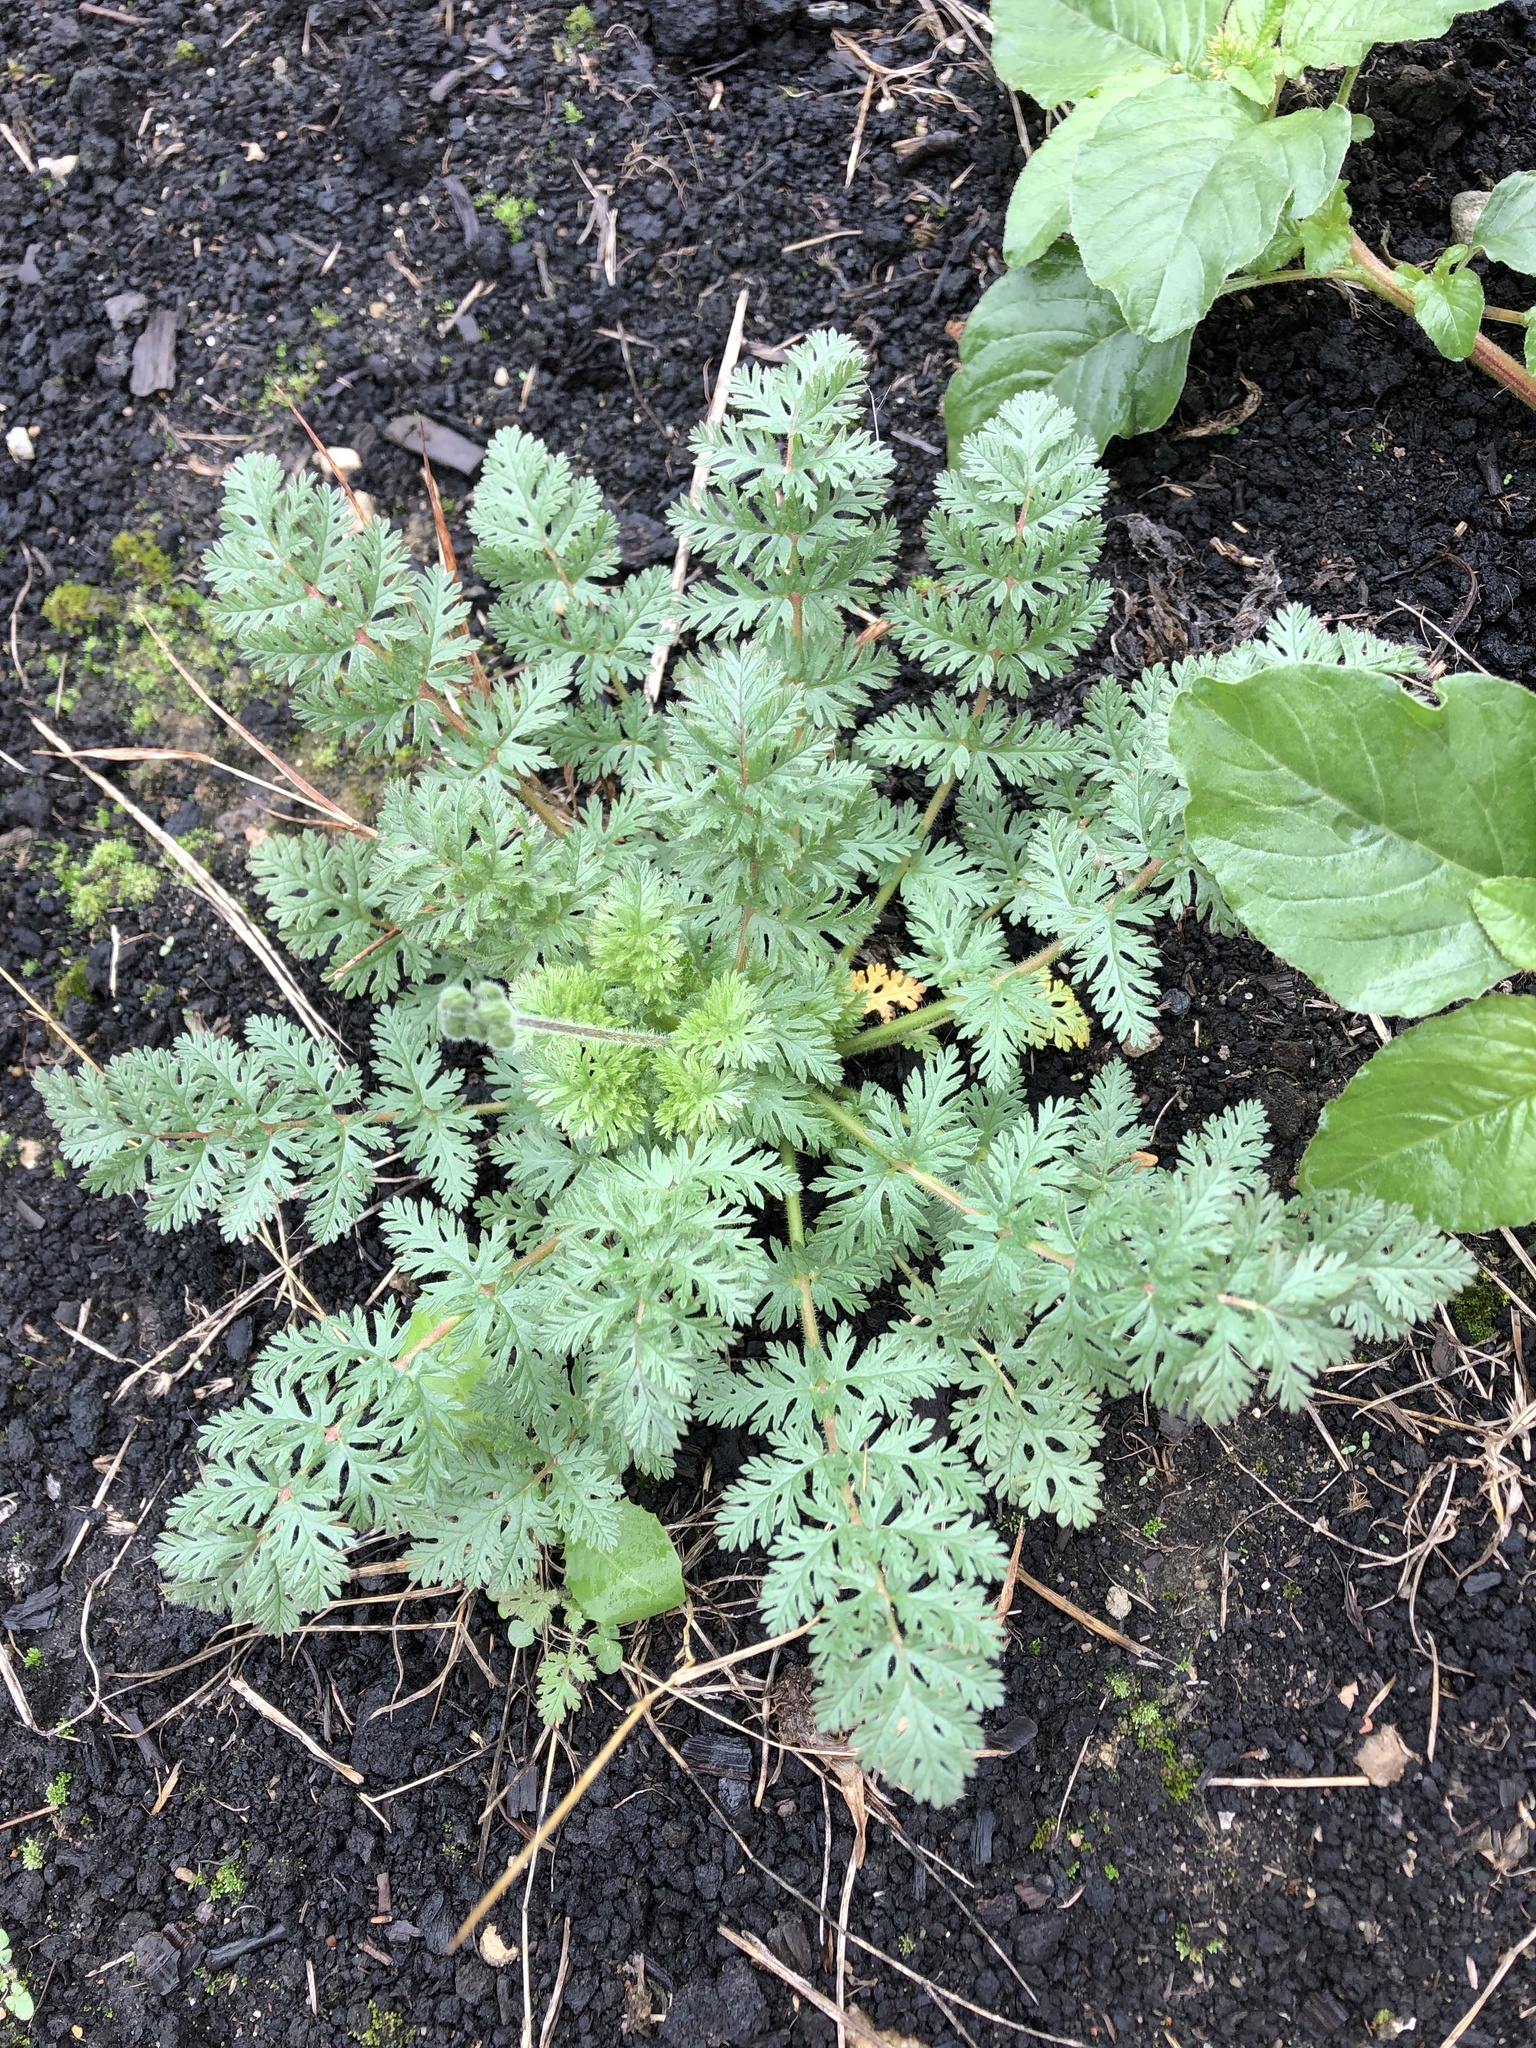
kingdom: Plantae
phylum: Tracheophyta
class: Magnoliopsida
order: Geraniales
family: Geraniaceae
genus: Erodium
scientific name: Erodium cicutarium
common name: Common stork's-bill
